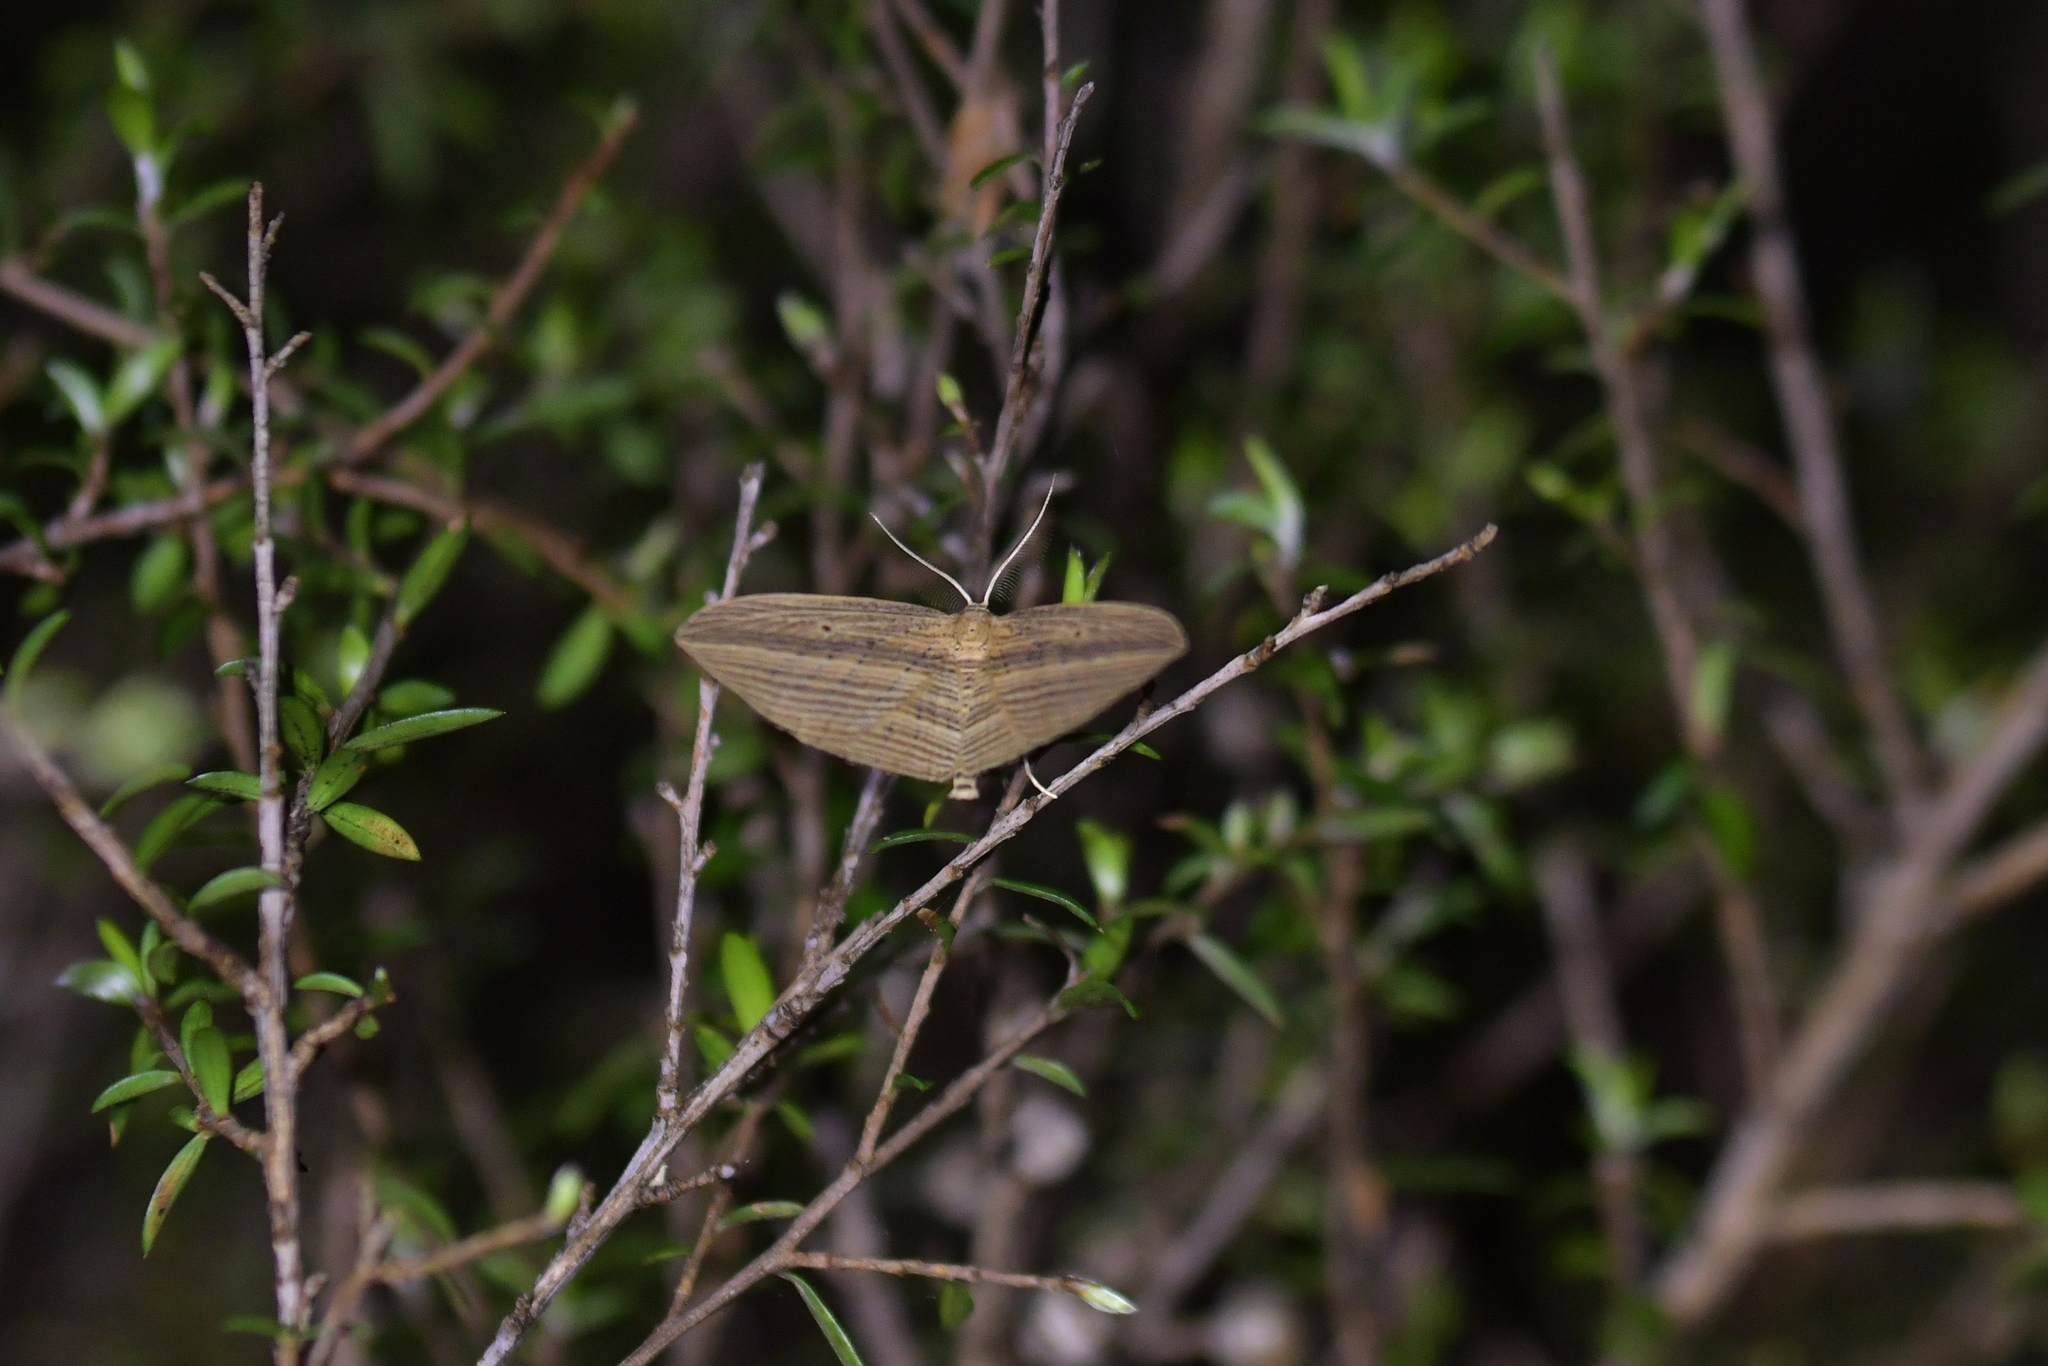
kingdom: Animalia
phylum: Arthropoda
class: Insecta
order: Lepidoptera
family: Geometridae
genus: Epiphryne
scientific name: Epiphryne verriculata
